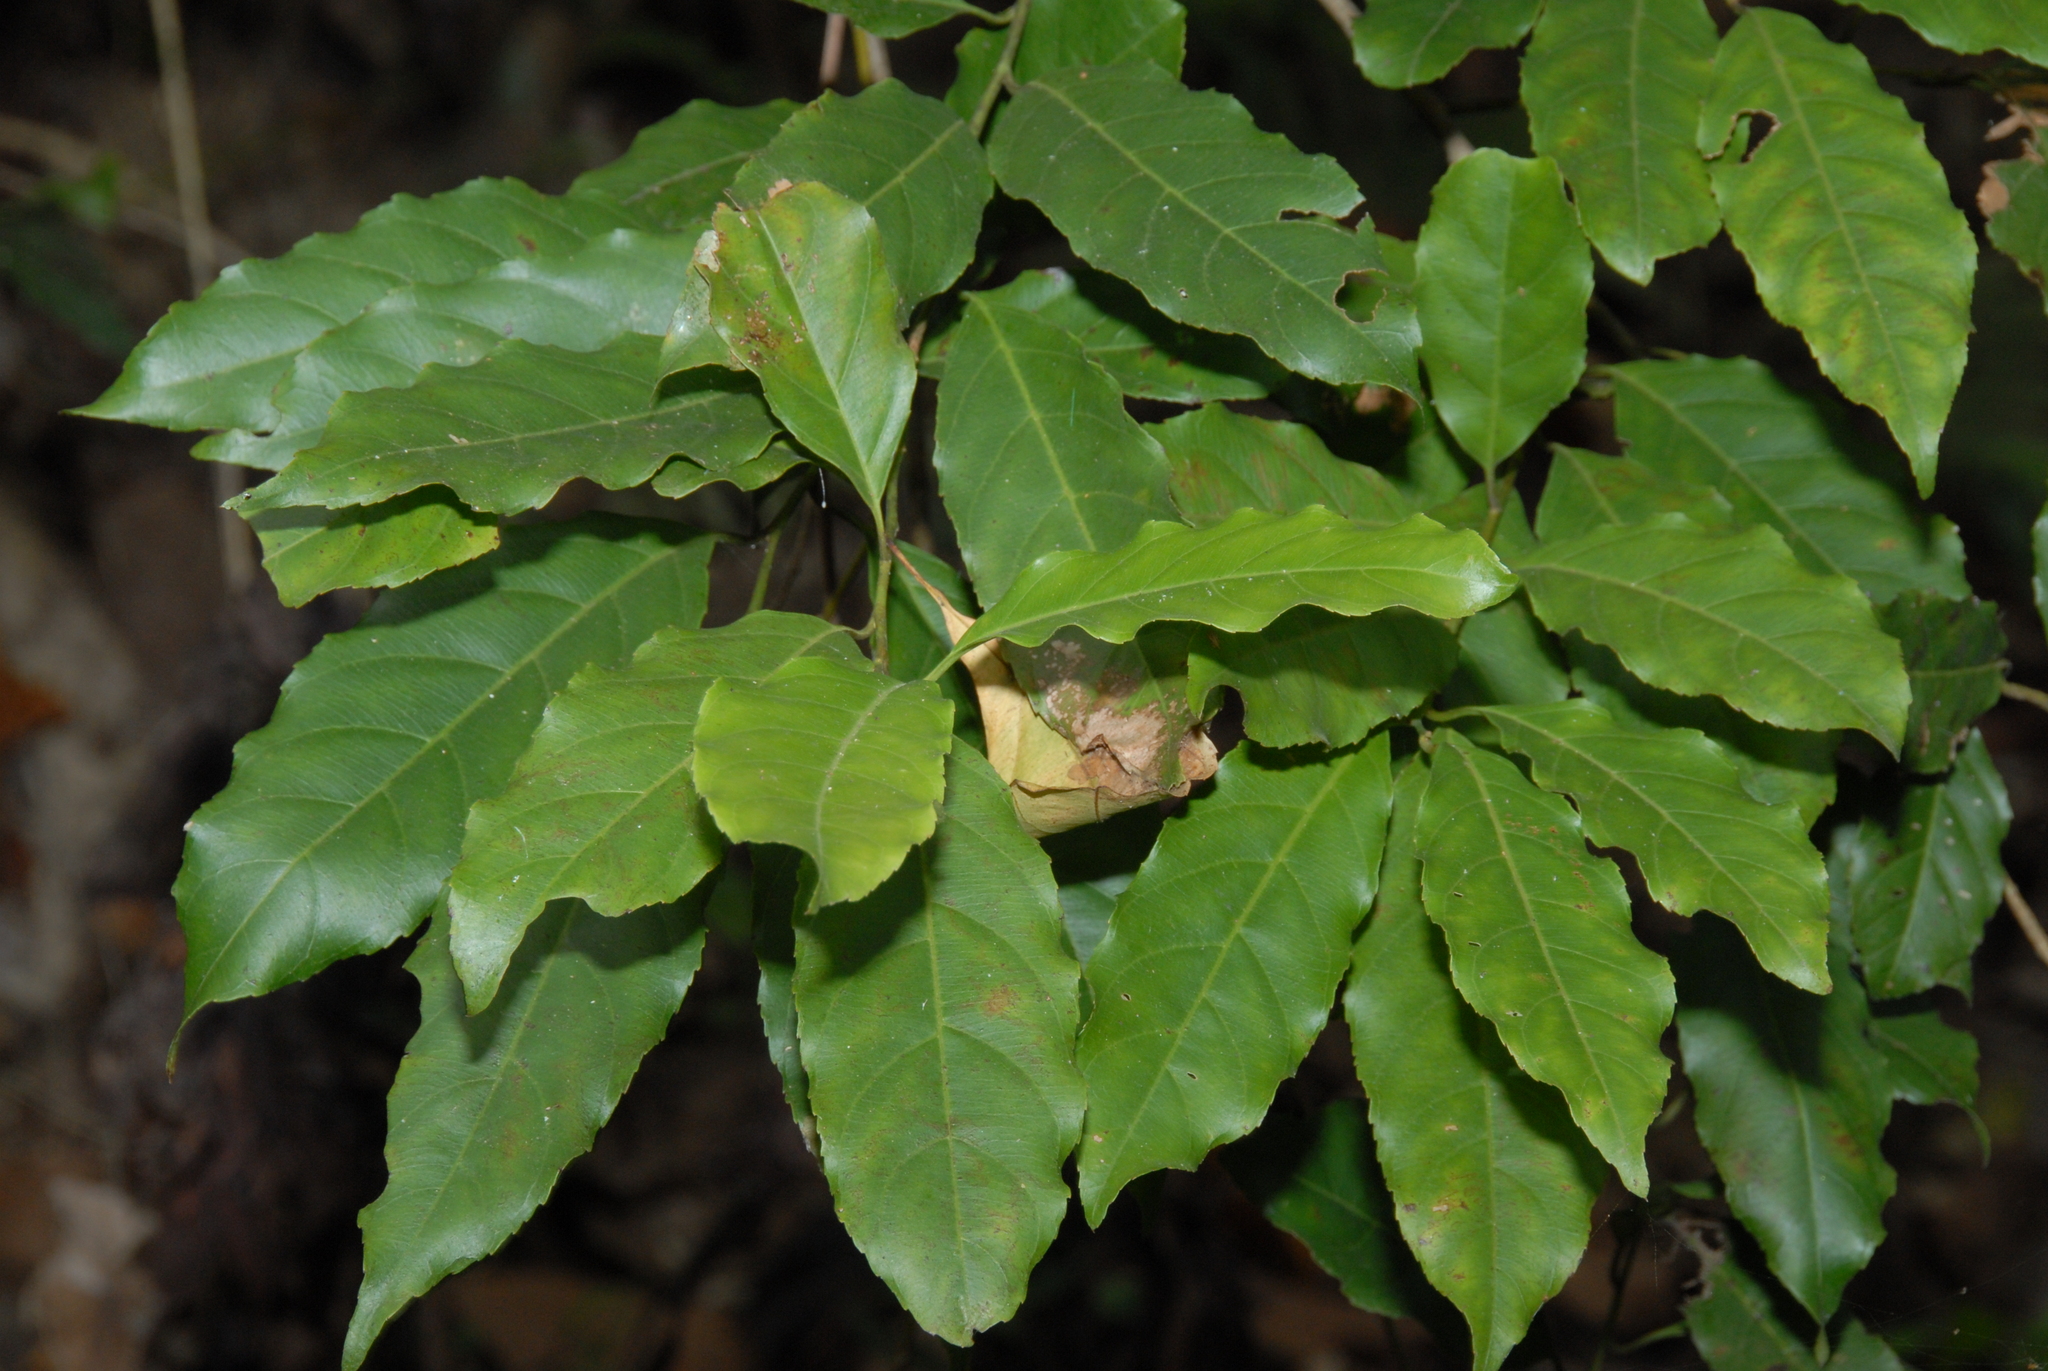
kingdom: Plantae
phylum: Tracheophyta
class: Magnoliopsida
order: Saxifragales
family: Iteaceae
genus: Itea
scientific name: Itea parviflora
